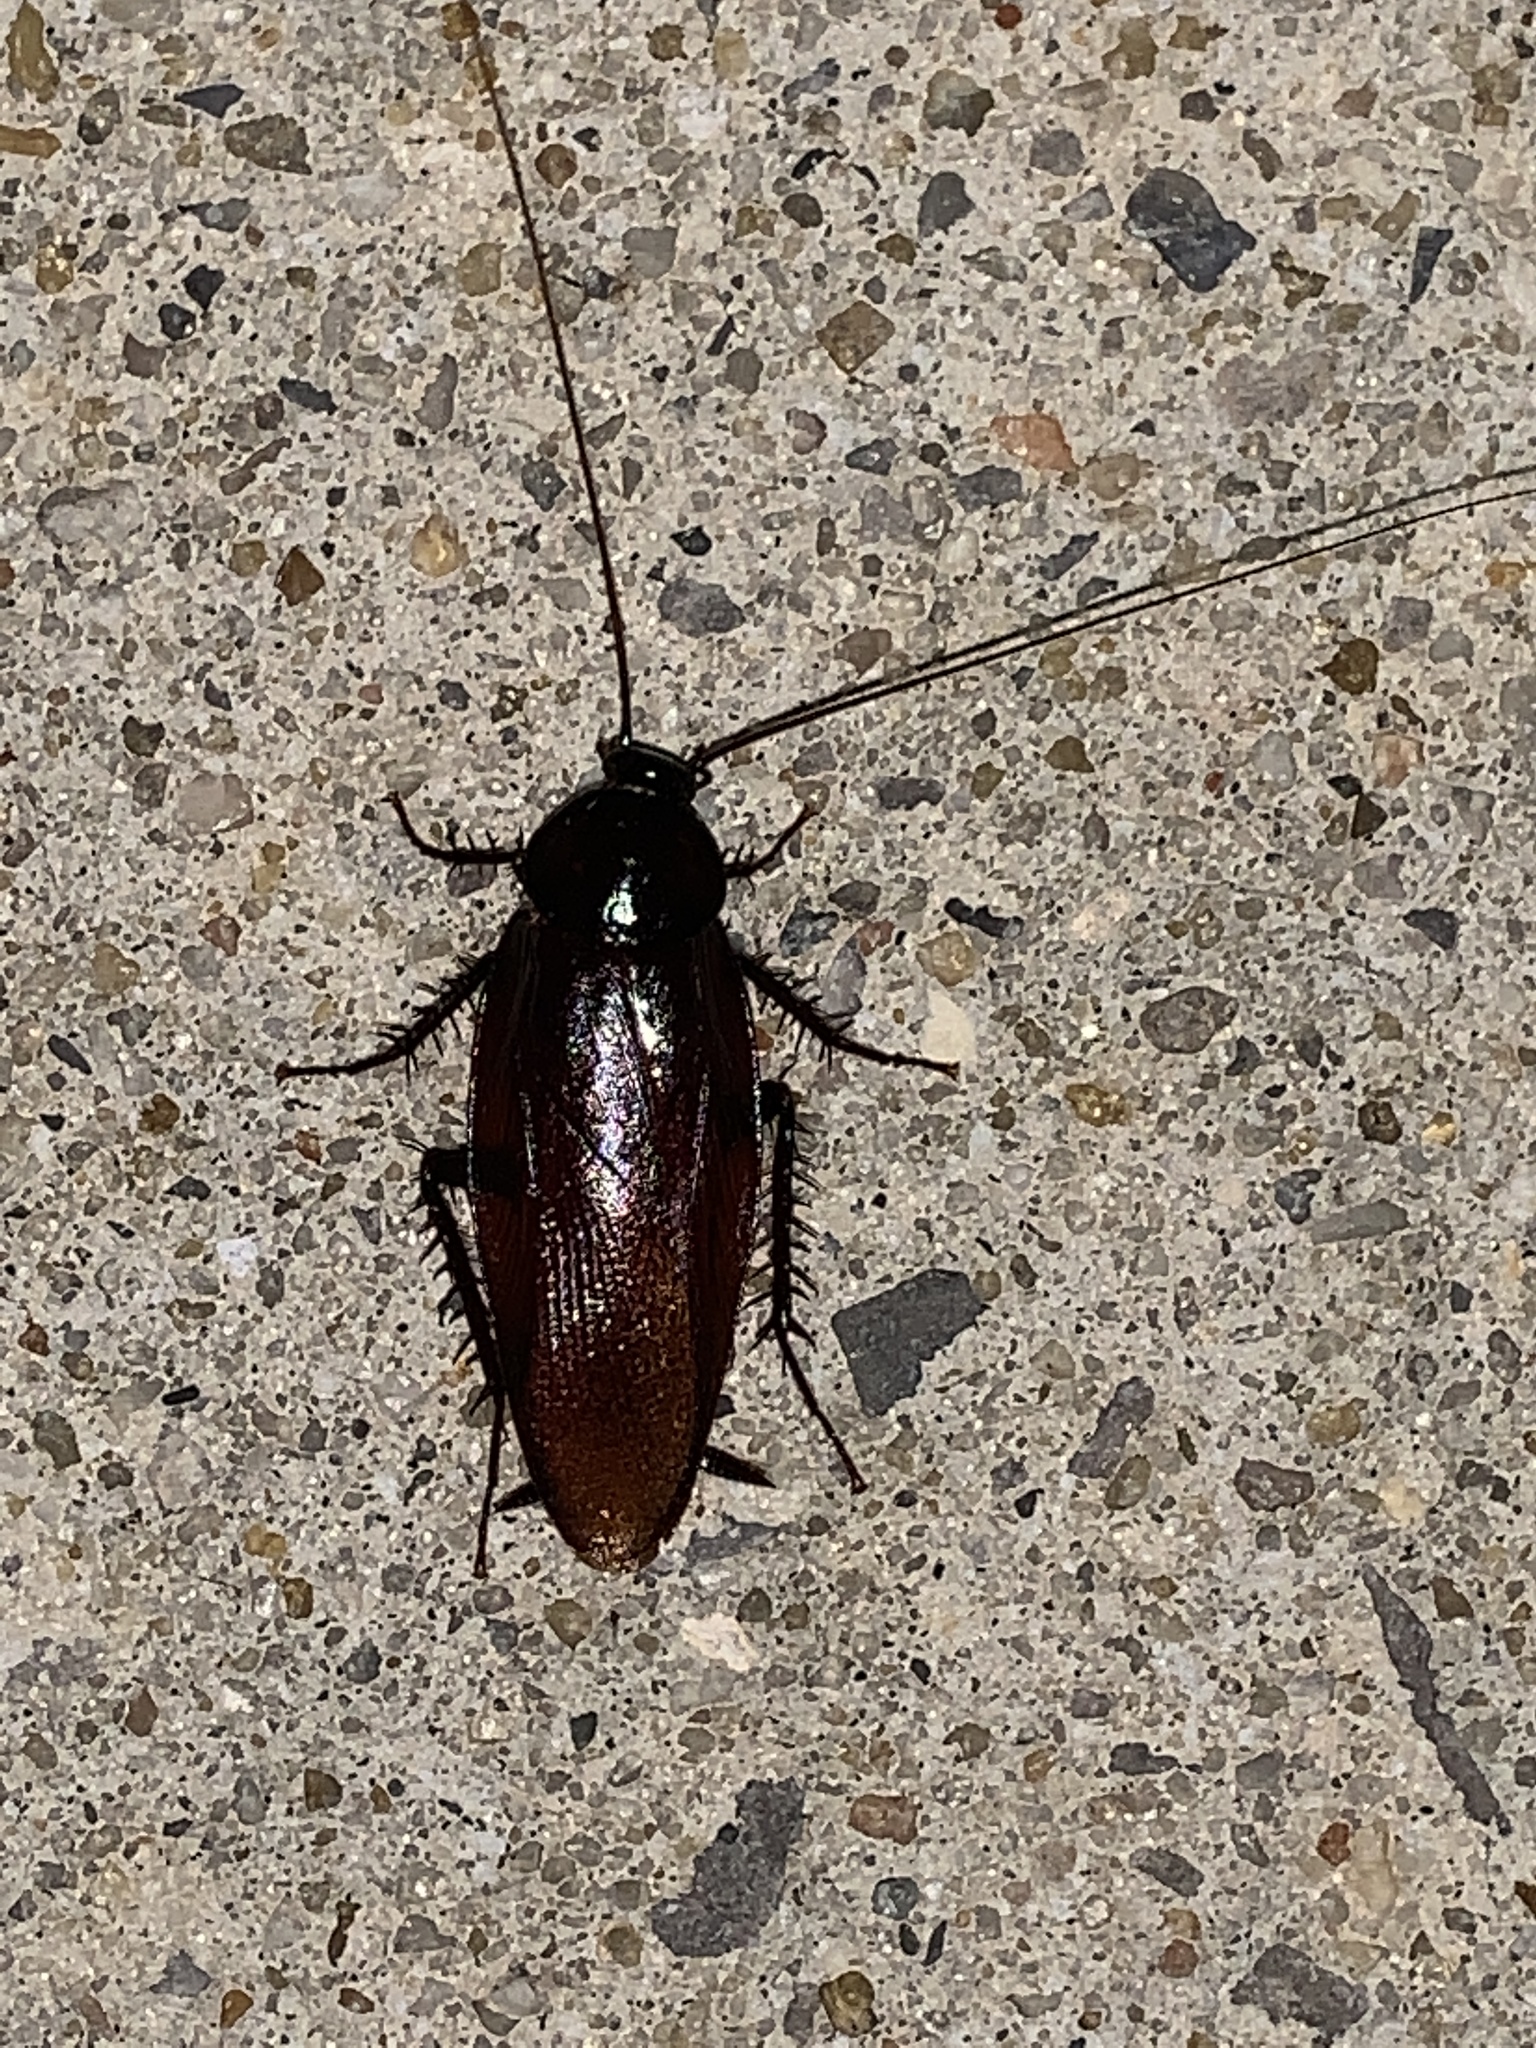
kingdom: Animalia
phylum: Arthropoda
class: Insecta
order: Blattodea
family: Blattidae
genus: Periplaneta
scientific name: Periplaneta fuliginosa
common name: Smokeybrown cockroad
